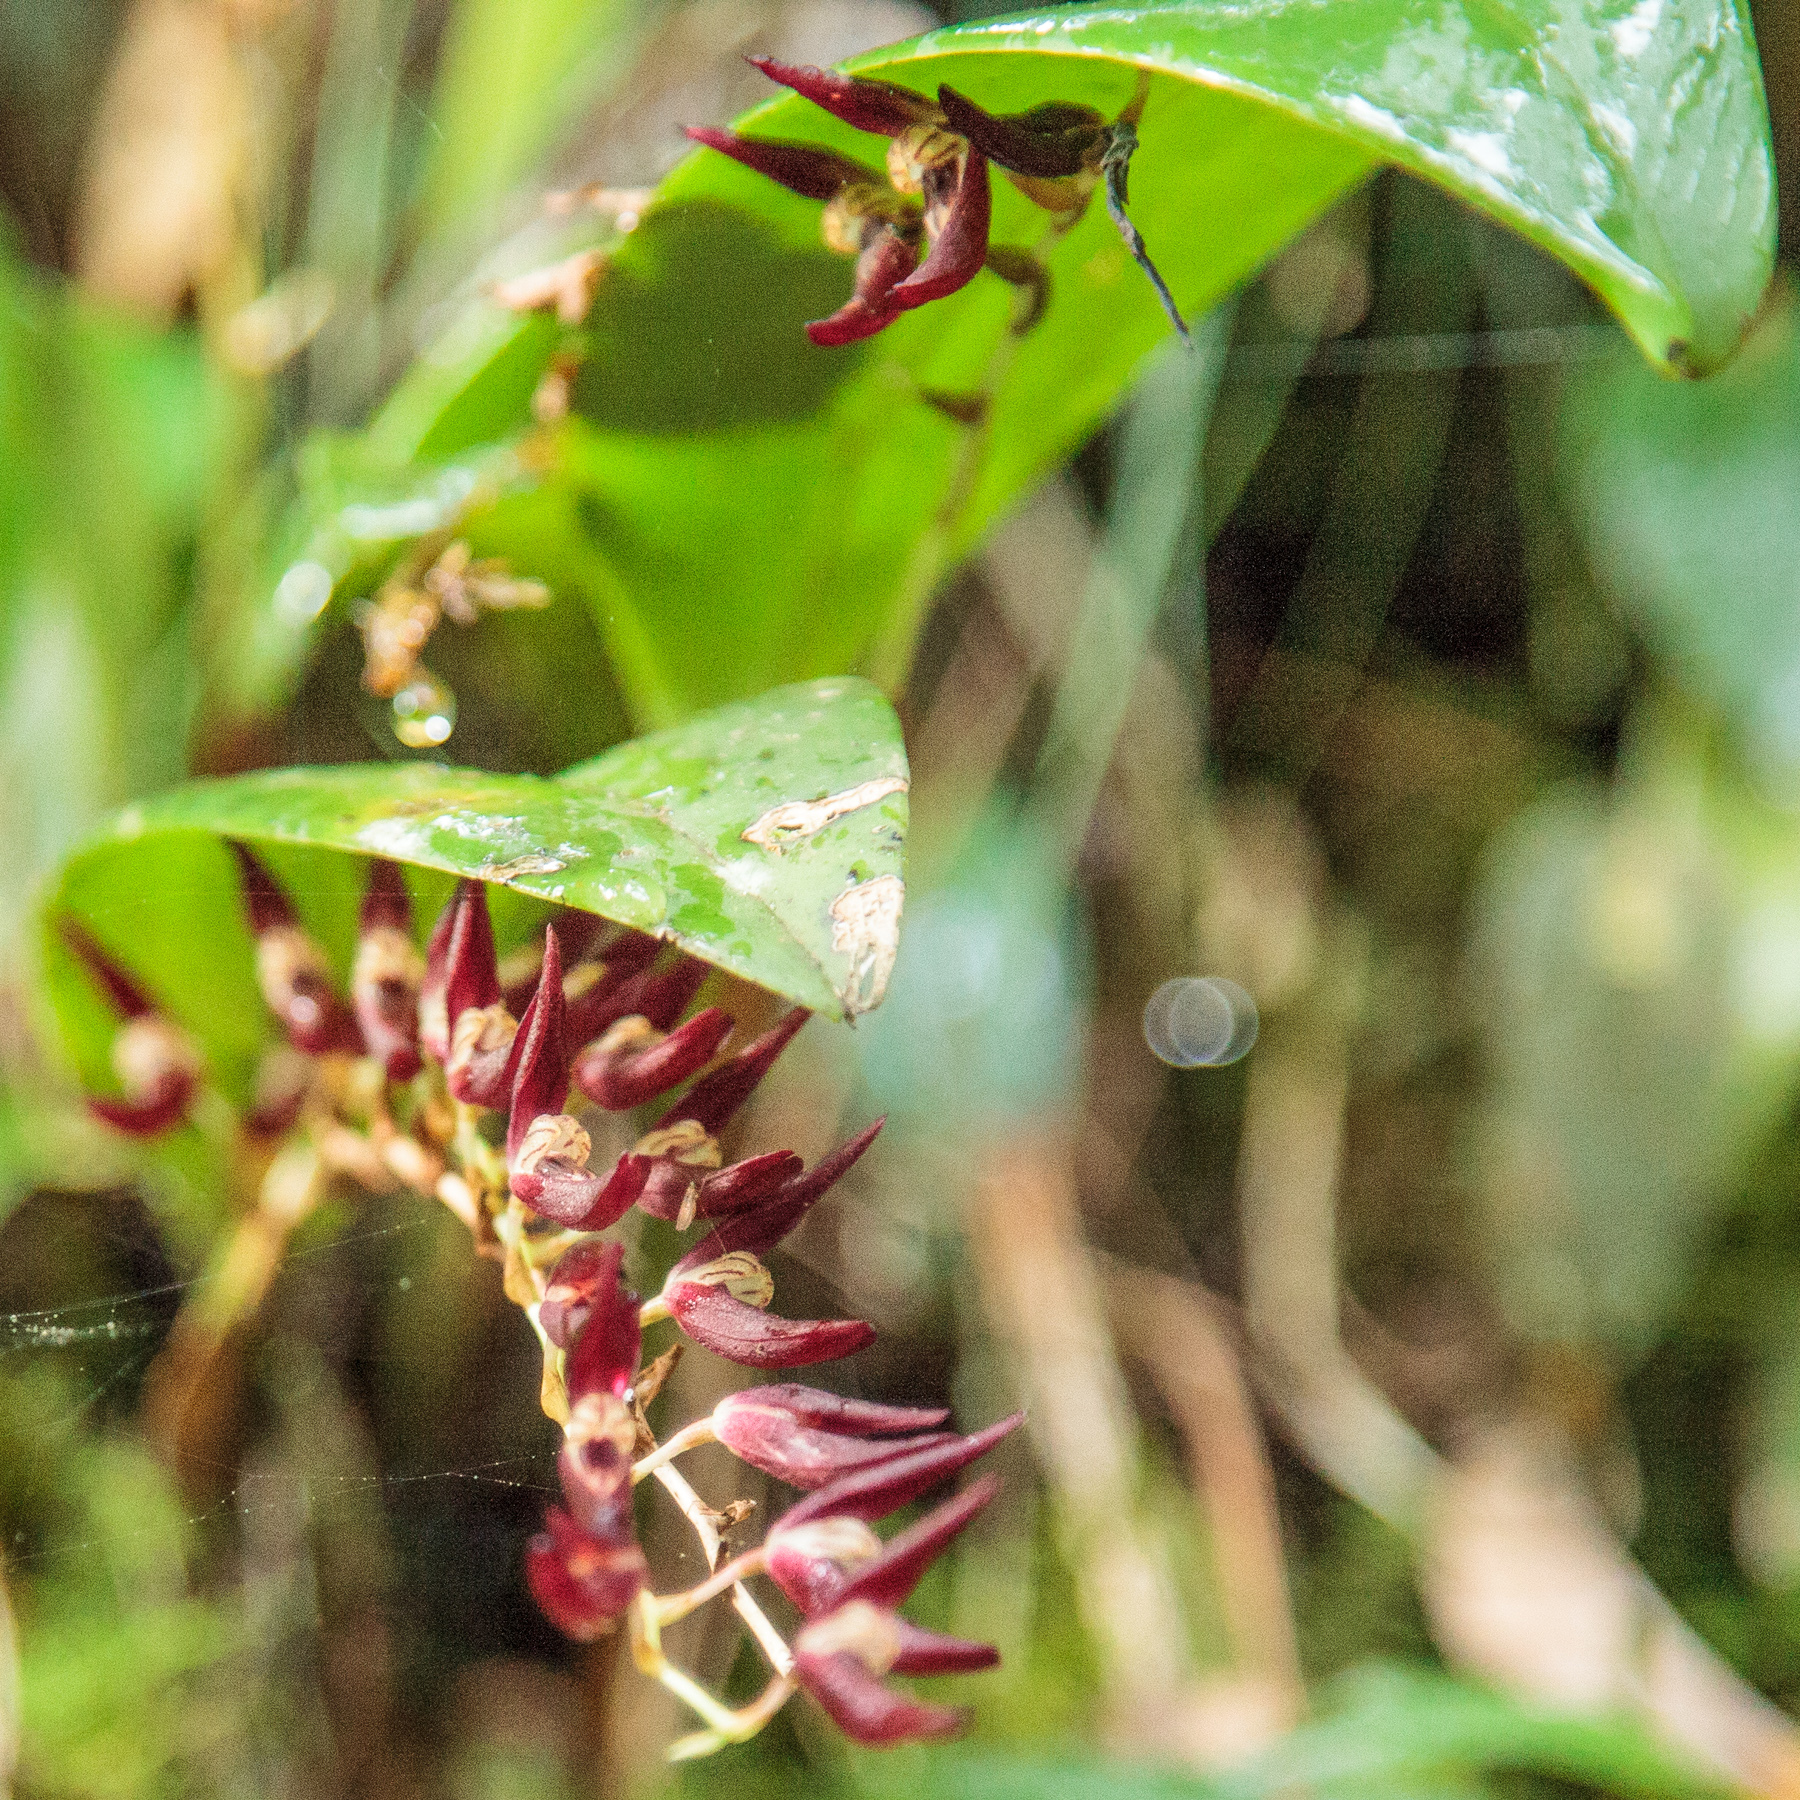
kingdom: Plantae
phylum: Tracheophyta
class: Liliopsida
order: Asparagales
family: Orchidaceae
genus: Stelis
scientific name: Stelis megachlamys
